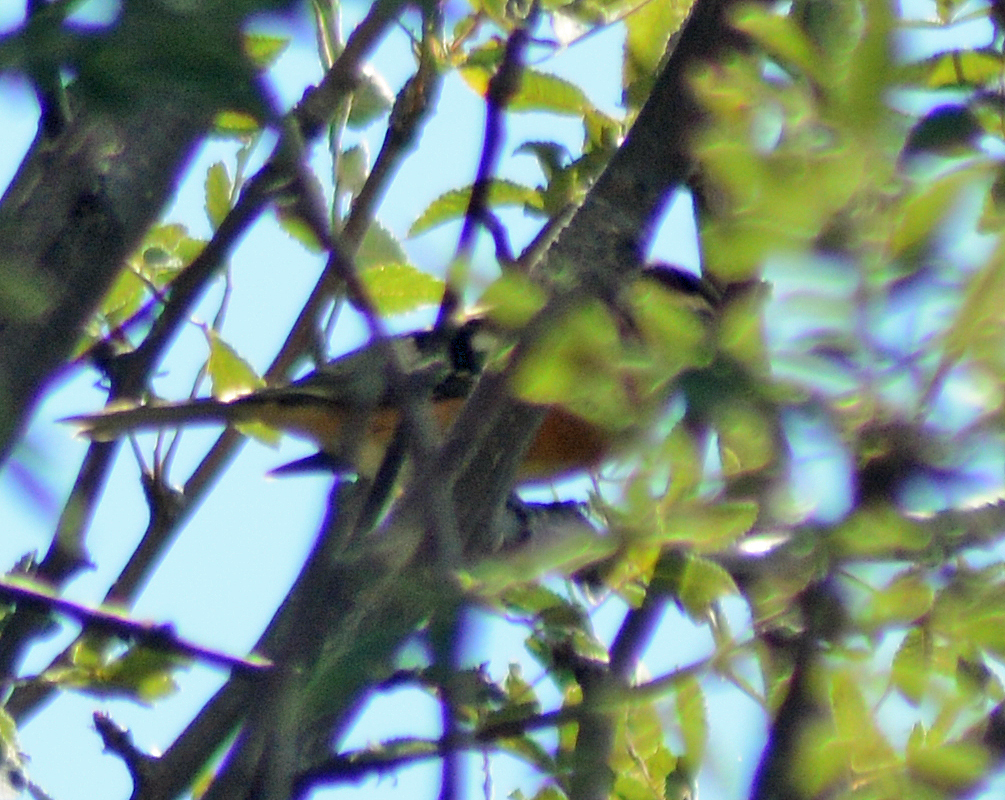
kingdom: Animalia
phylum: Chordata
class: Aves
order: Passeriformes
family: Cardinalidae
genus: Pheucticus
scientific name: Pheucticus melanocephalus
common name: Black-headed grosbeak
